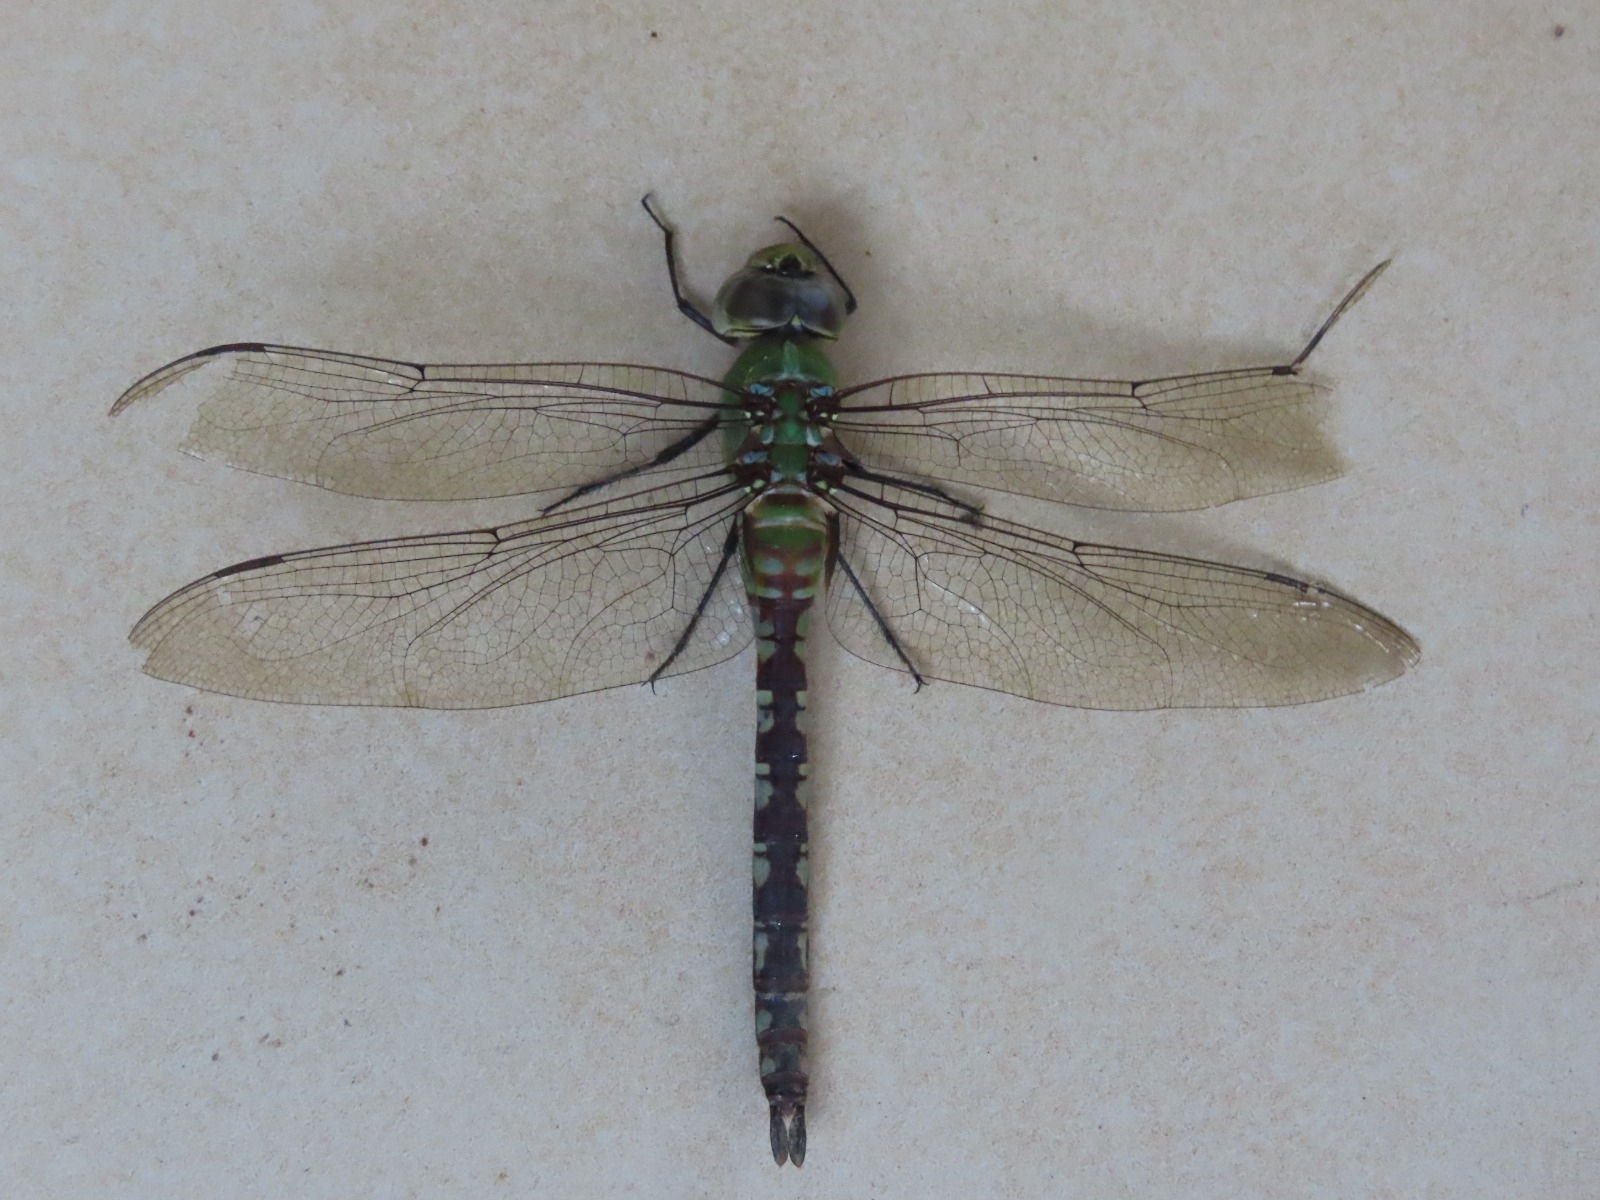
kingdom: Animalia
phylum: Arthropoda
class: Insecta
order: Odonata
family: Aeshnidae
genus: Anax
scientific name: Anax amazili
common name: Amazon darner
